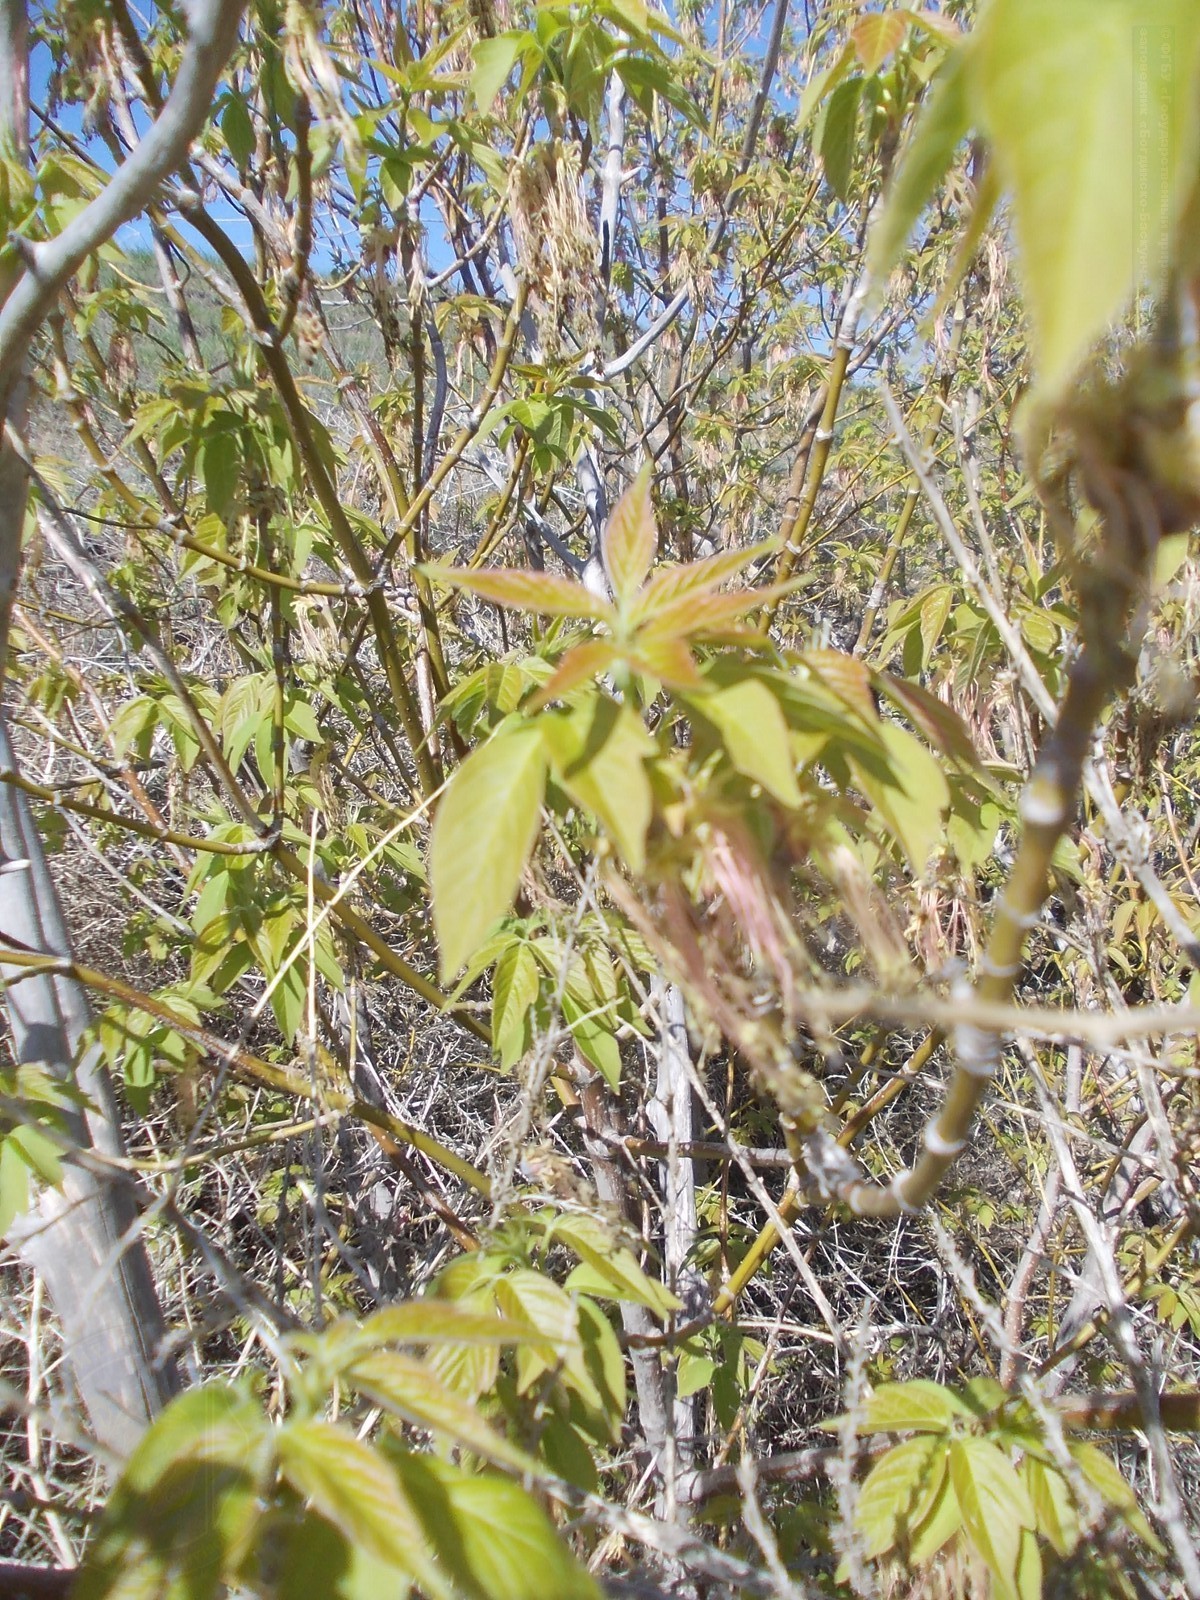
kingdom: Plantae
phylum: Tracheophyta
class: Magnoliopsida
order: Sapindales
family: Sapindaceae
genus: Acer
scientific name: Acer negundo
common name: Ashleaf maple
